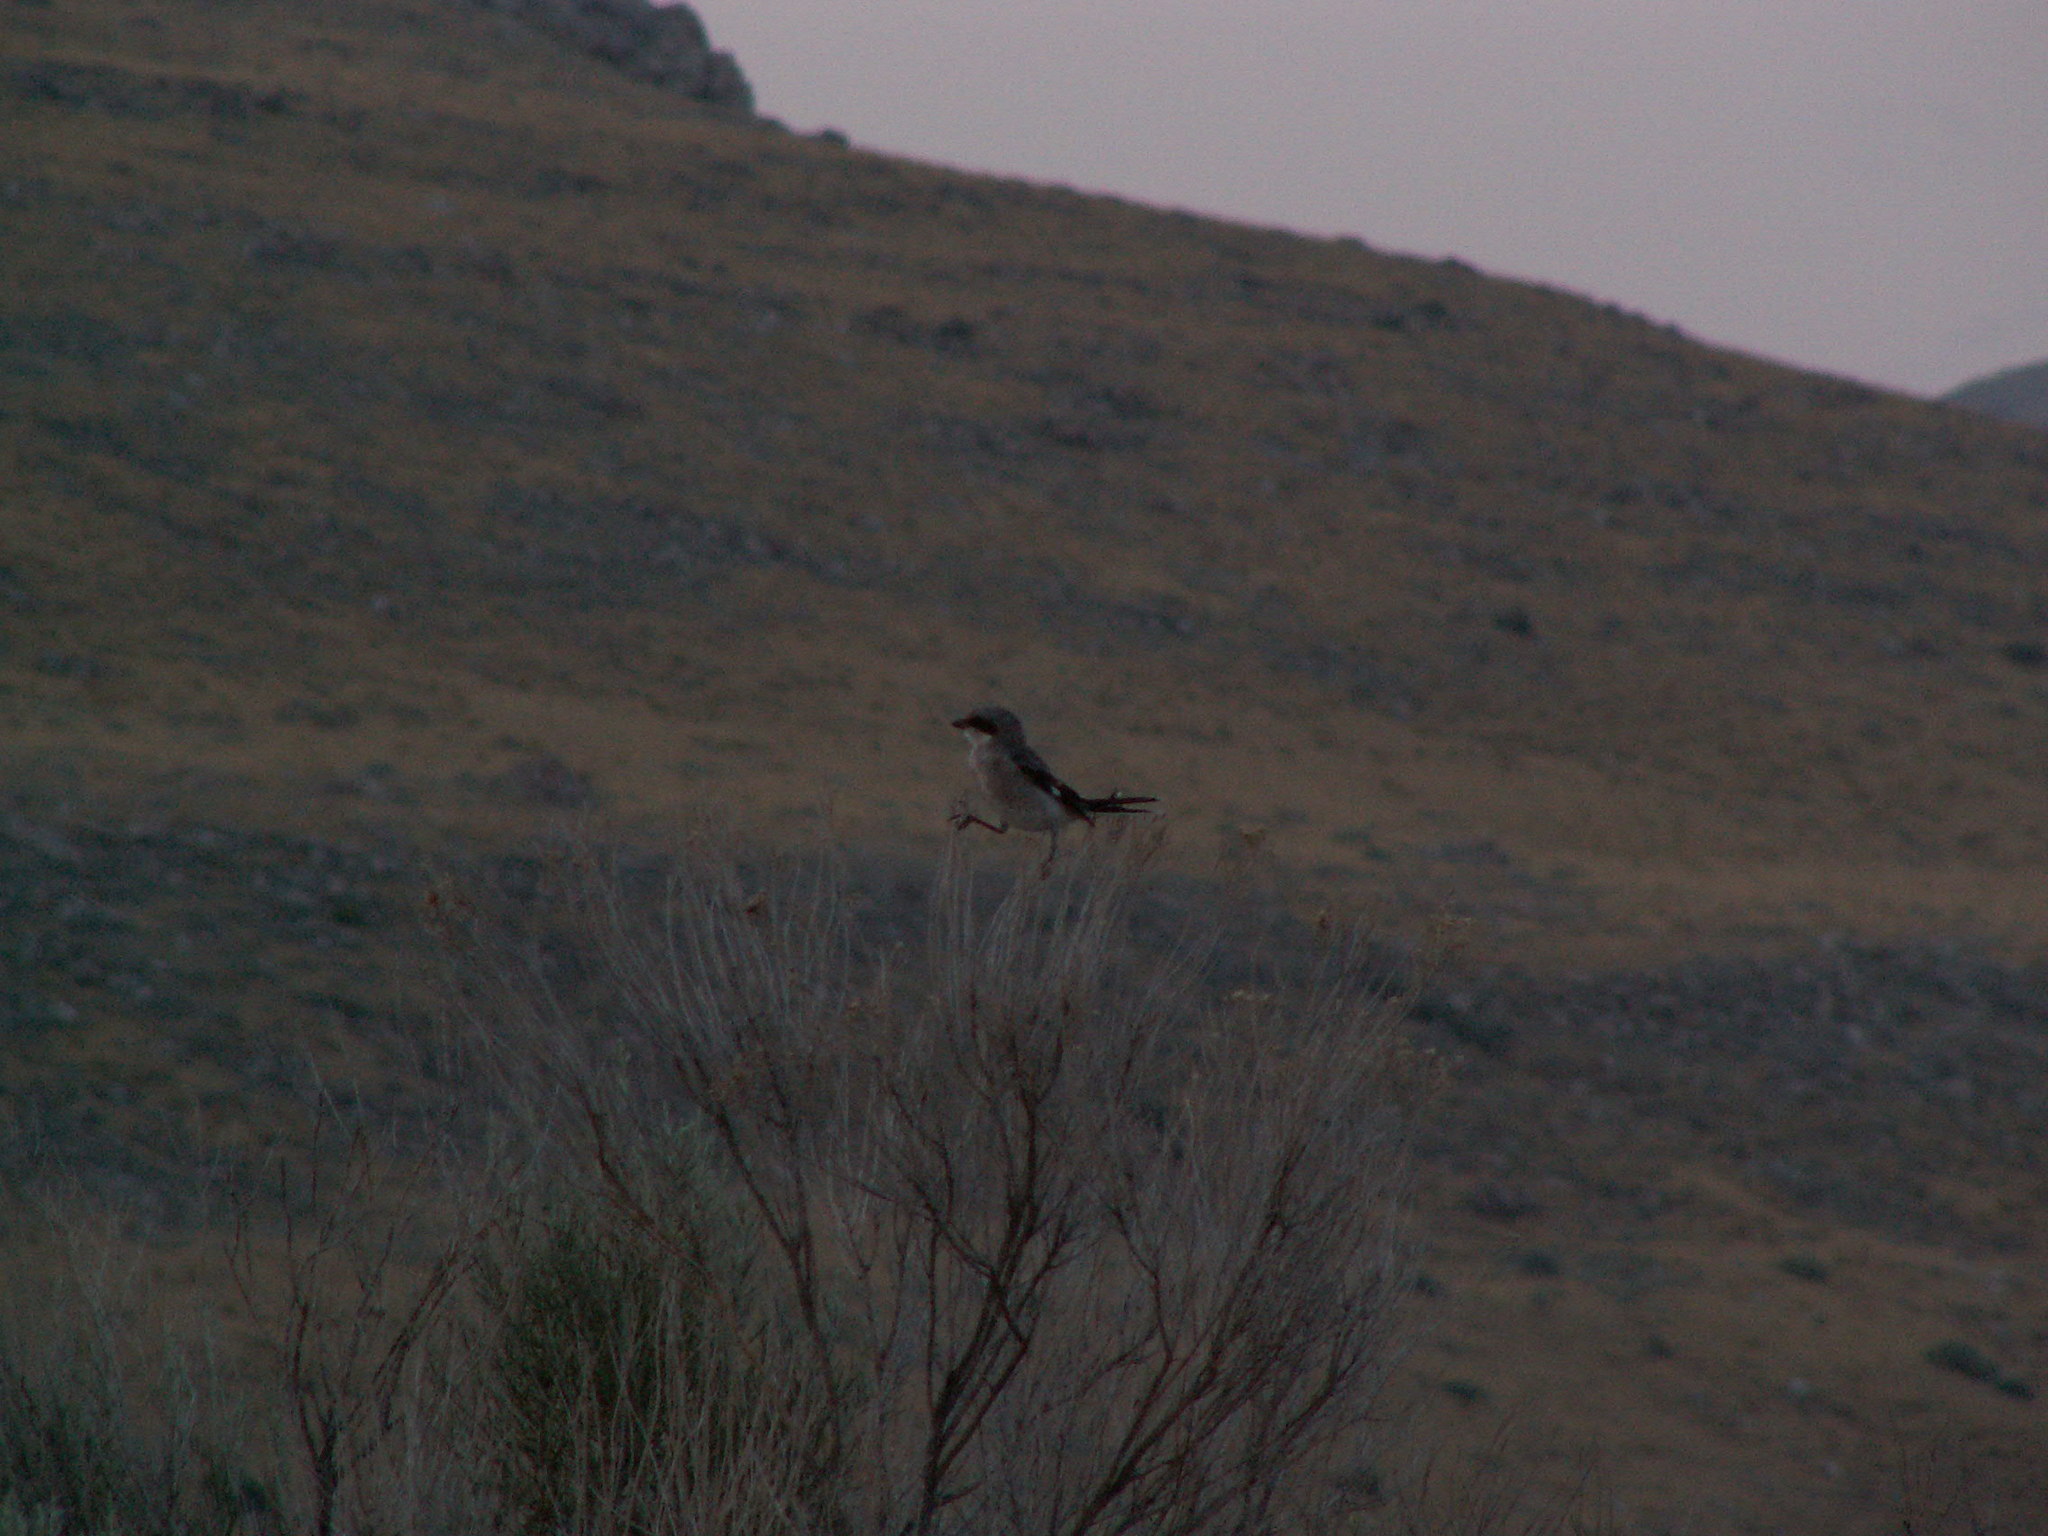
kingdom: Animalia
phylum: Chordata
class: Aves
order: Passeriformes
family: Laniidae
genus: Lanius
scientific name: Lanius ludovicianus
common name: Loggerhead shrike
